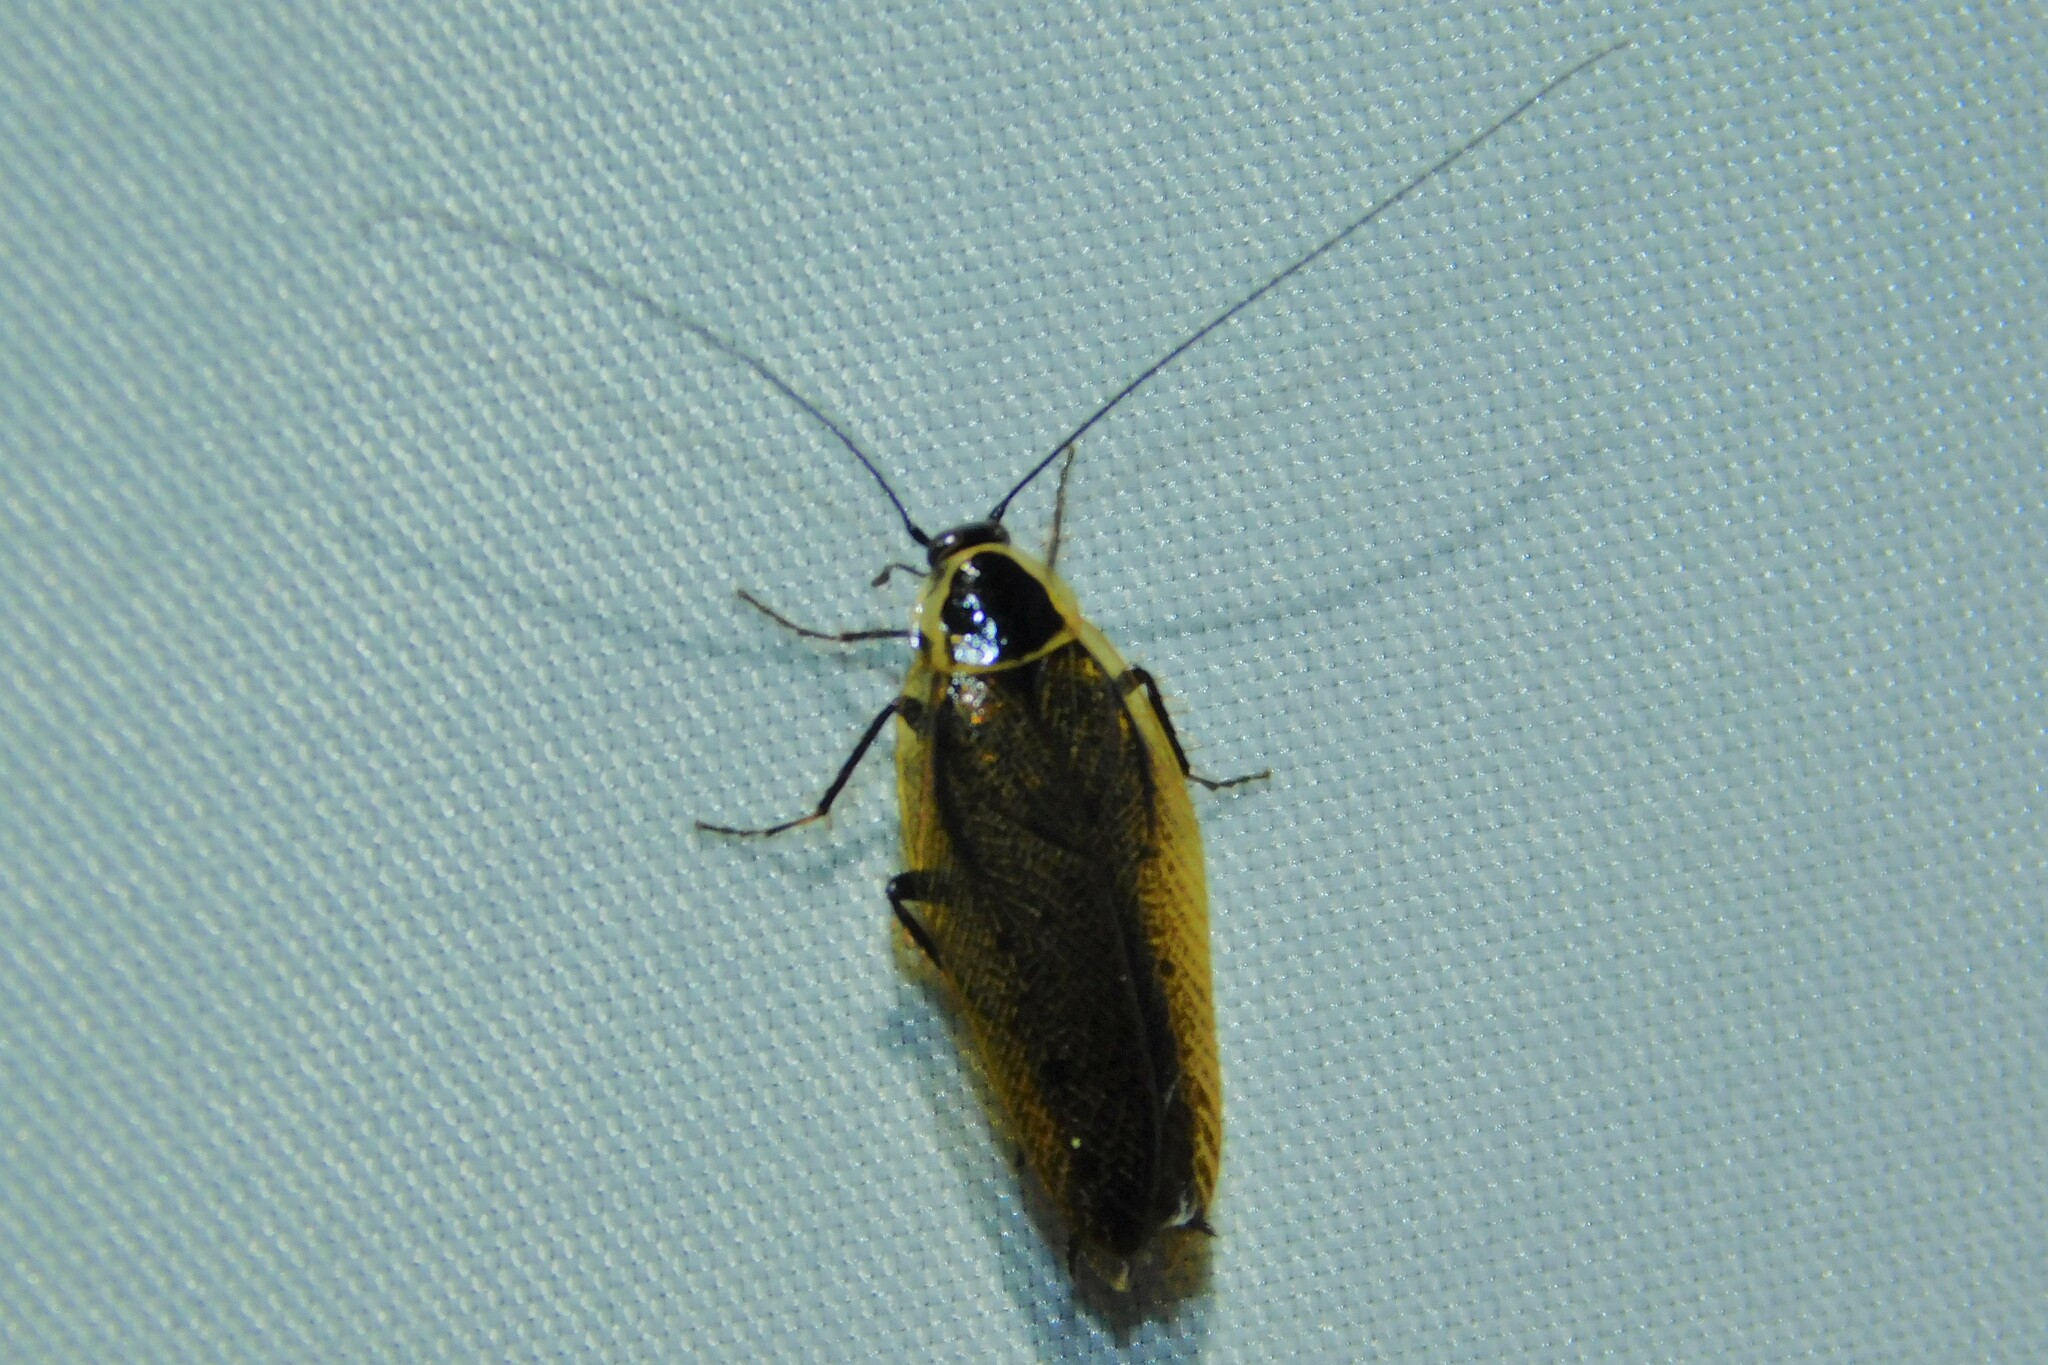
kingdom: Animalia
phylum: Arthropoda
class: Insecta
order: Blattodea
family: Ectobiidae
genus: Ectobius
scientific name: Ectobius sylvestris
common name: Forest cockroach
